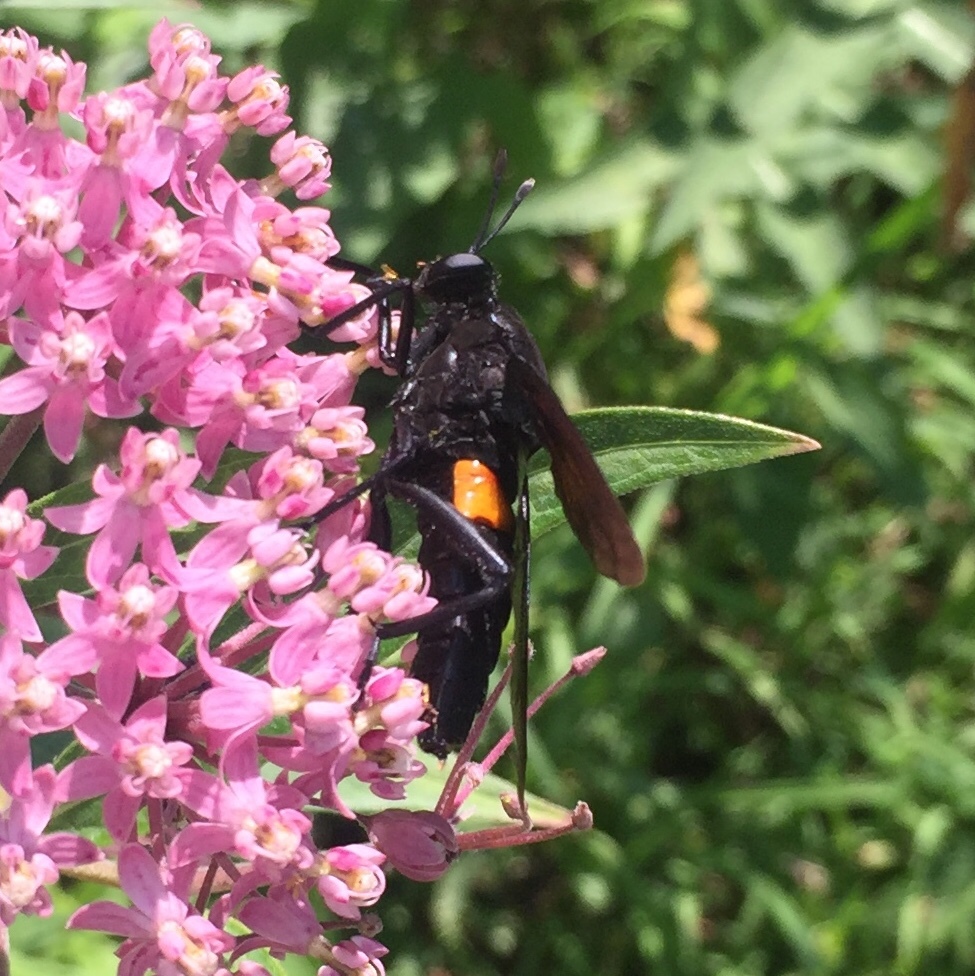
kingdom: Animalia
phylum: Arthropoda
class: Insecta
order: Diptera
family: Mydidae
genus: Mydas
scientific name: Mydas clavatus
